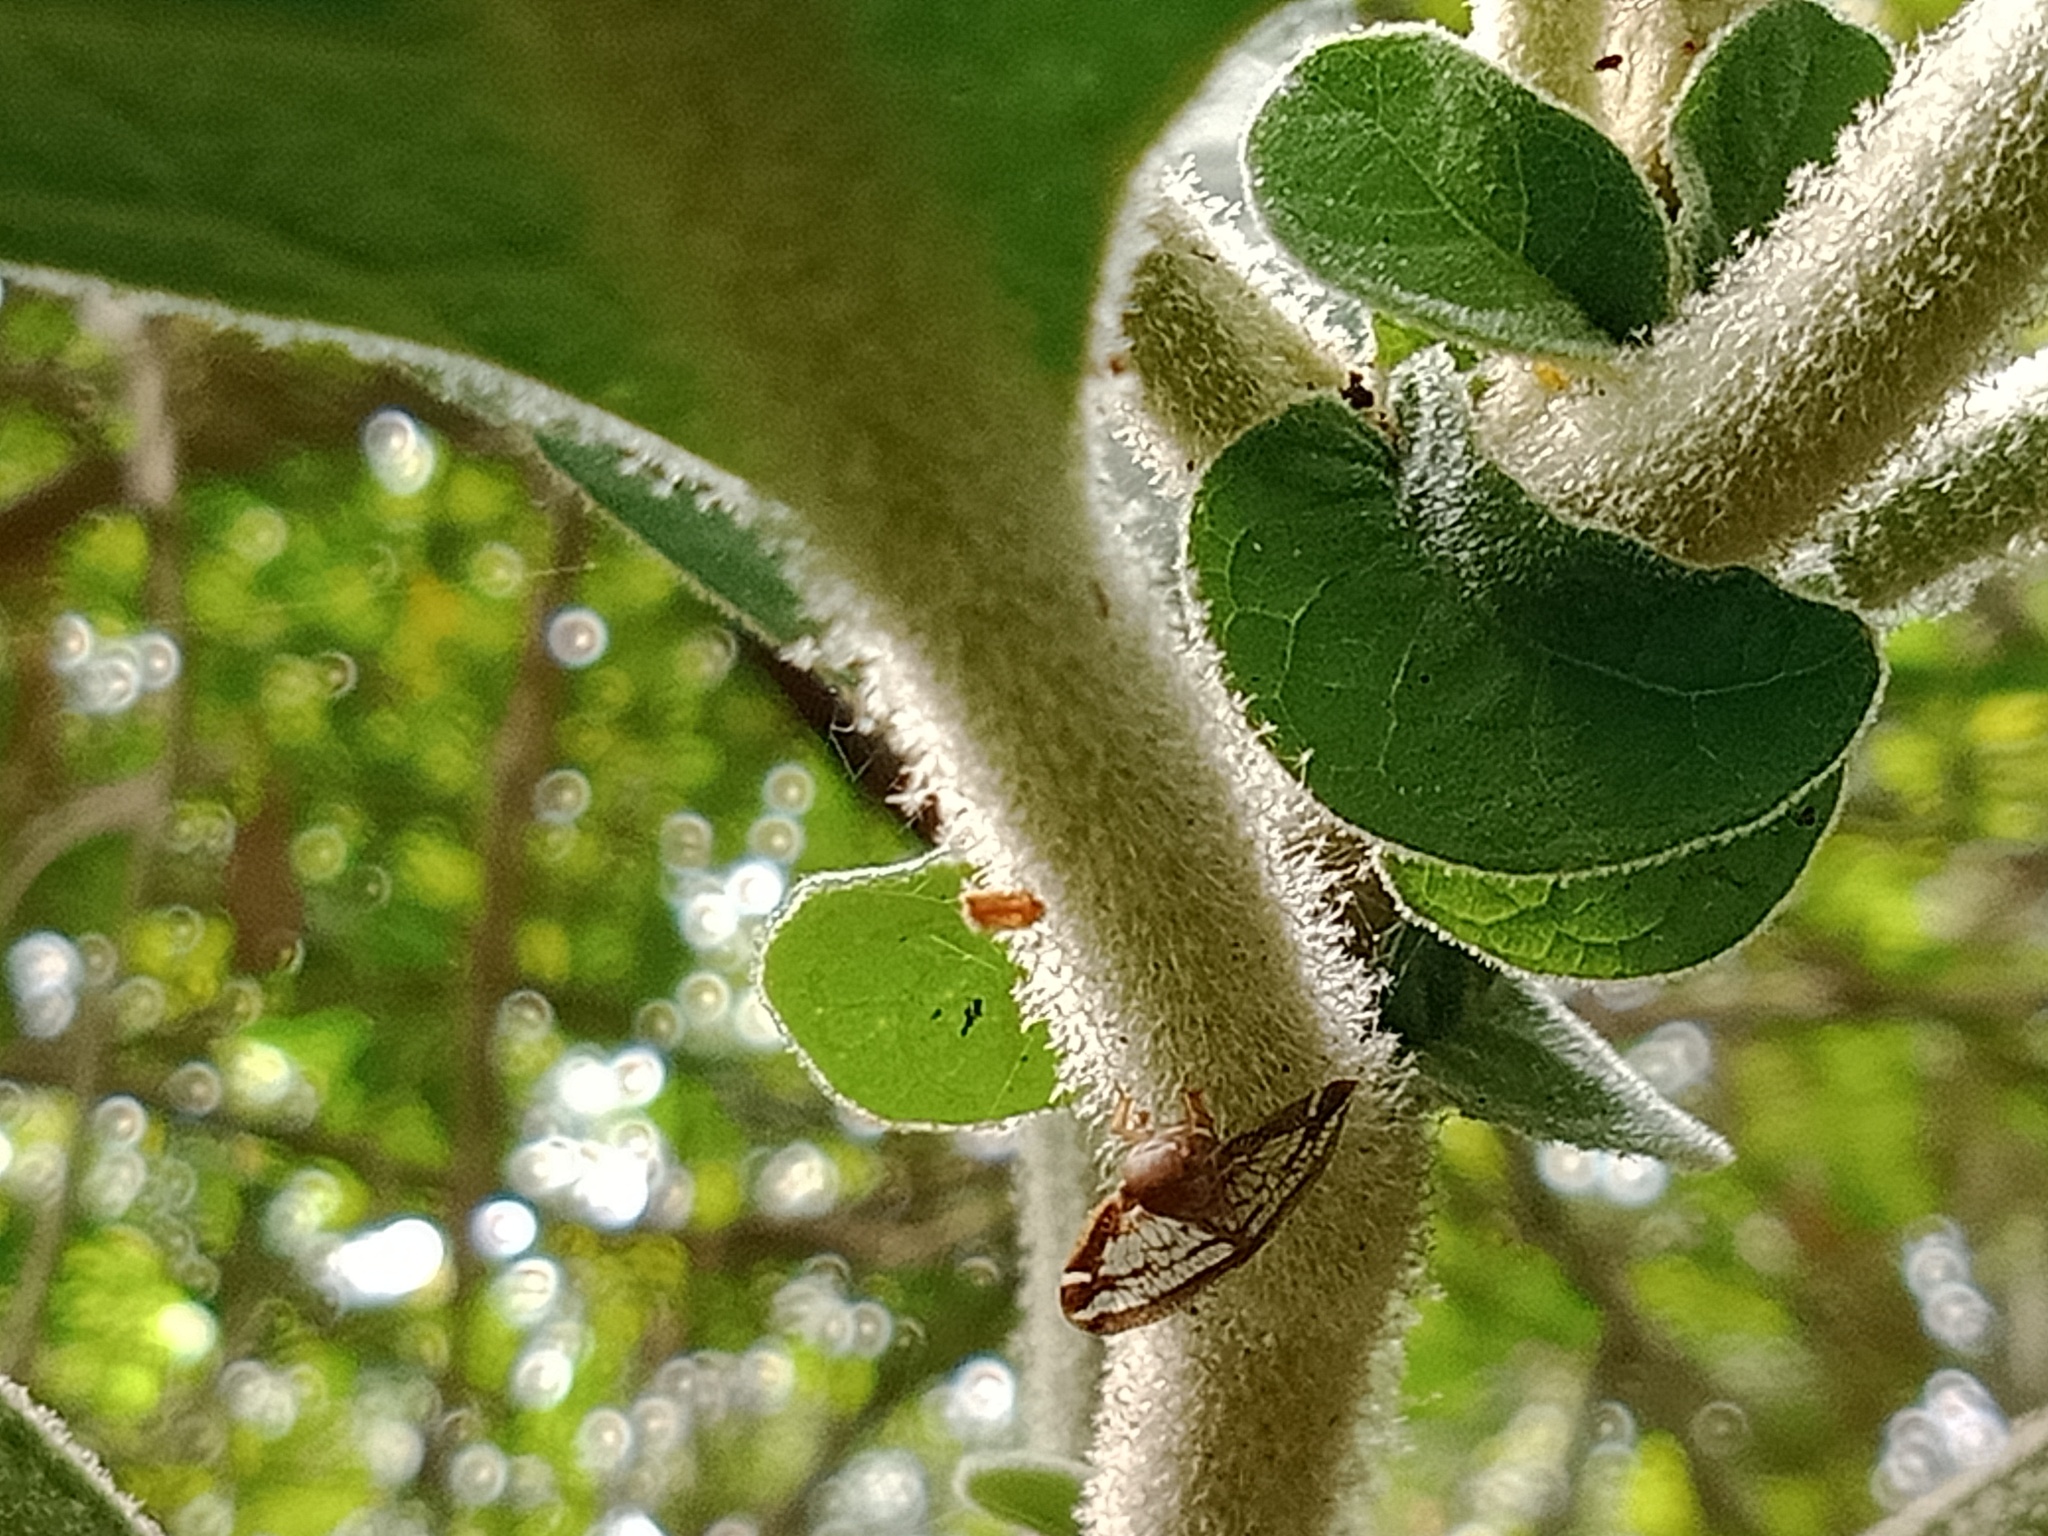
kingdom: Plantae
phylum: Tracheophyta
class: Magnoliopsida
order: Solanales
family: Solanaceae
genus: Solanum
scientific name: Solanum mauritianum
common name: Earleaf nightshade
